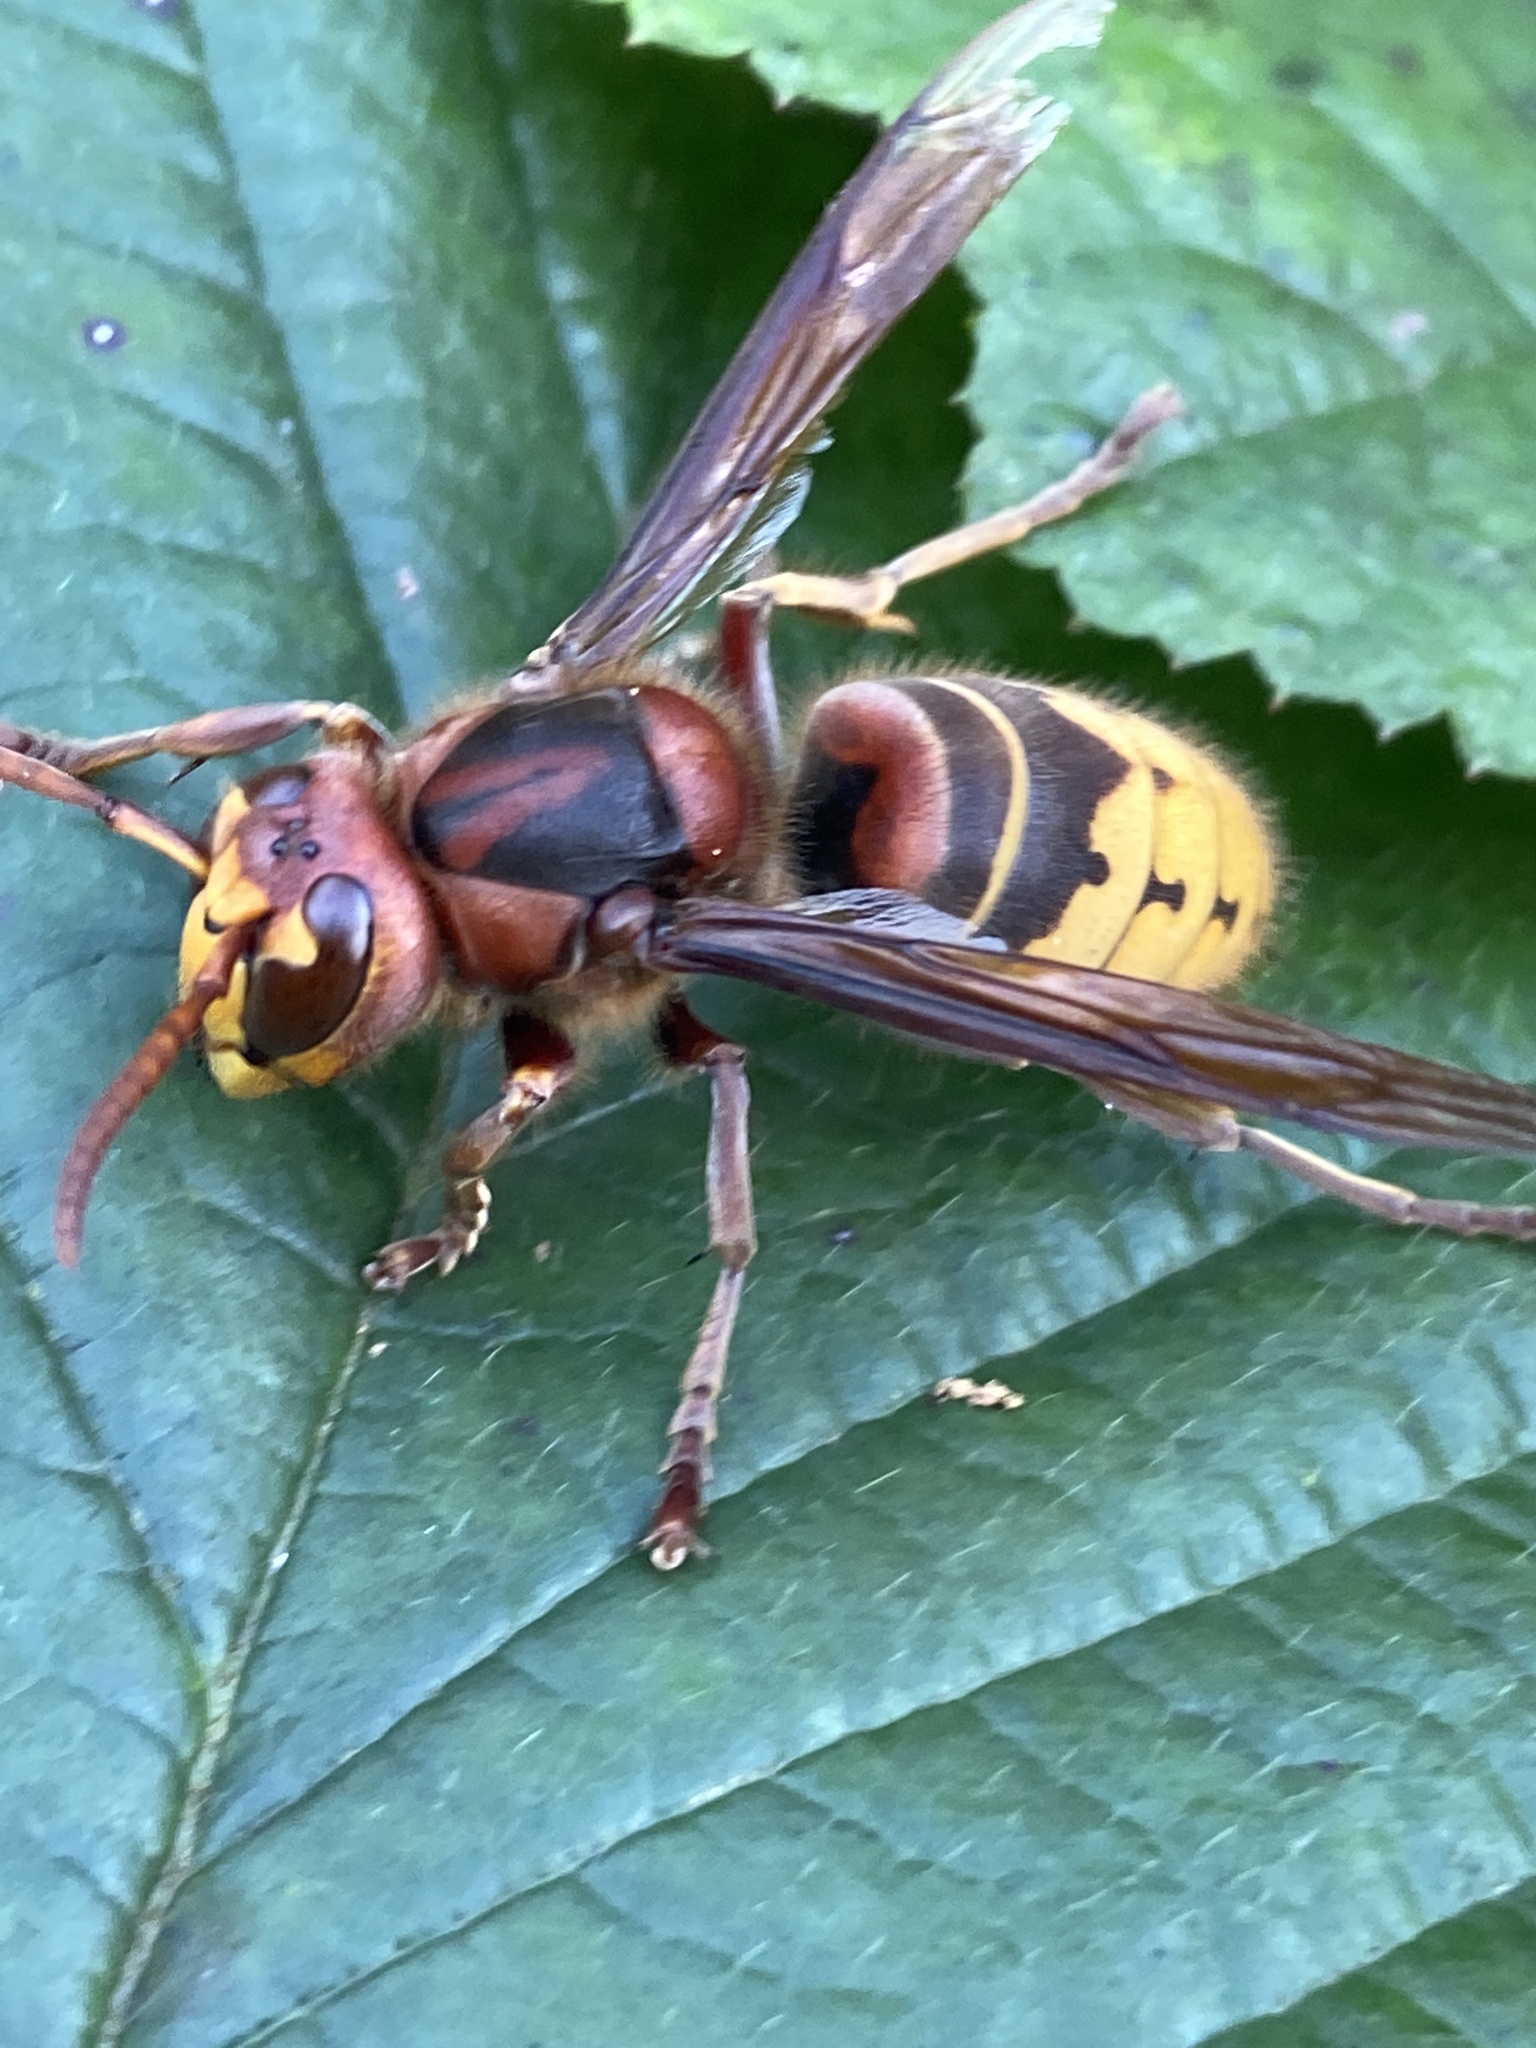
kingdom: Animalia
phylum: Arthropoda
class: Insecta
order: Hymenoptera
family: Vespidae
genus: Vespa
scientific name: Vespa crabro
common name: Hornet
